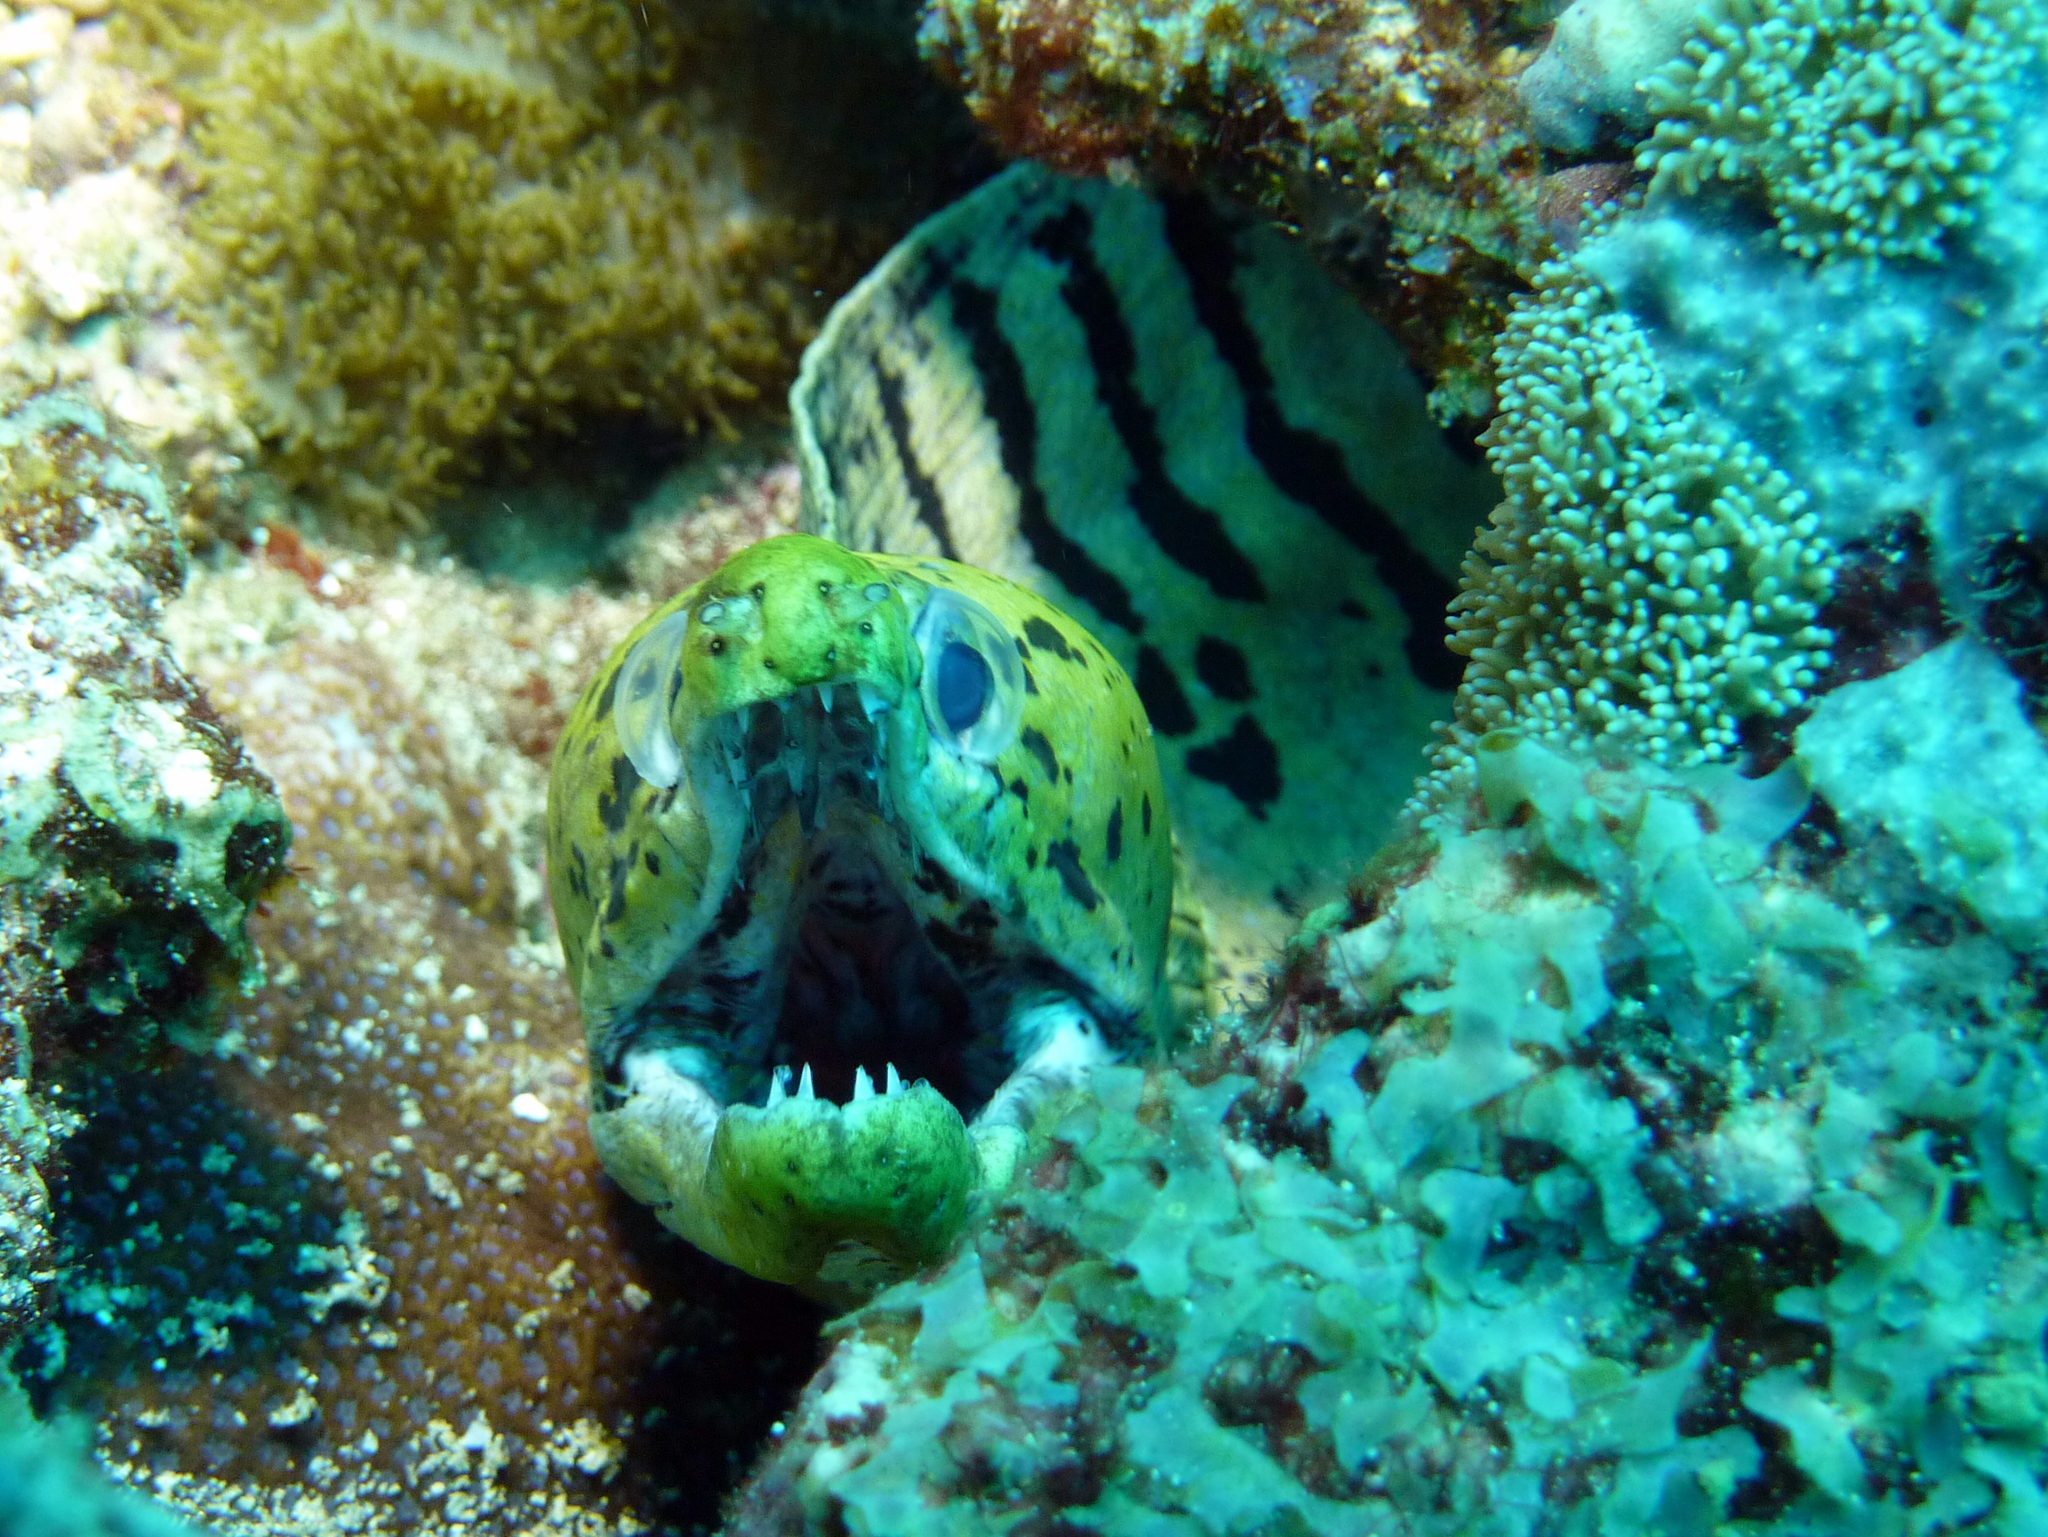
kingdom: Animalia
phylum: Chordata
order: Anguilliformes
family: Muraenidae
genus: Gymnothorax
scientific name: Gymnothorax fimbriatus
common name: Darkspotted moray
